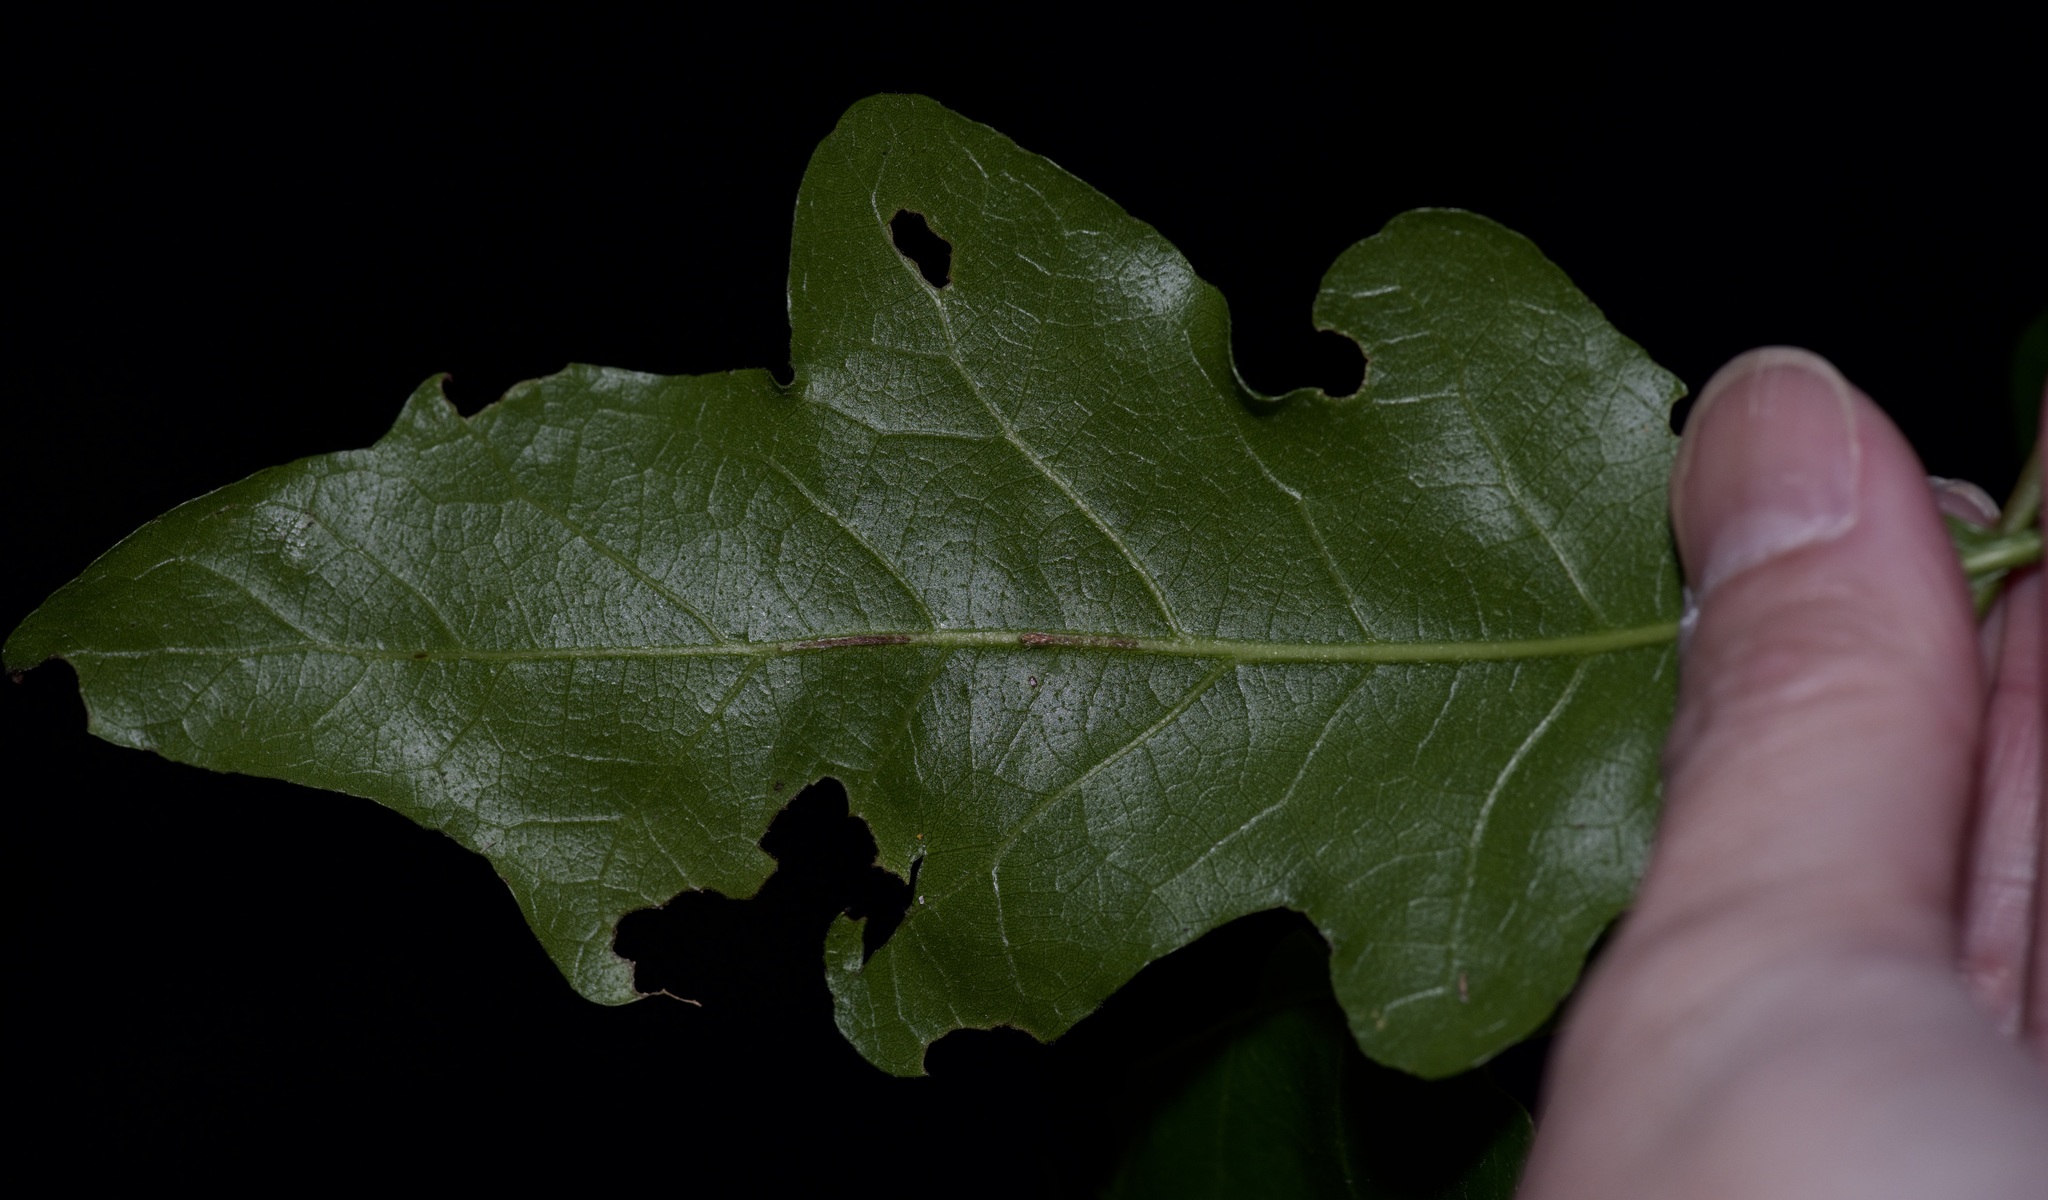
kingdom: Plantae
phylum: Tracheophyta
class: Magnoliopsida
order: Fagales
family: Fagaceae
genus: Quercus
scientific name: Quercus sinuata
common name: Durand oak
